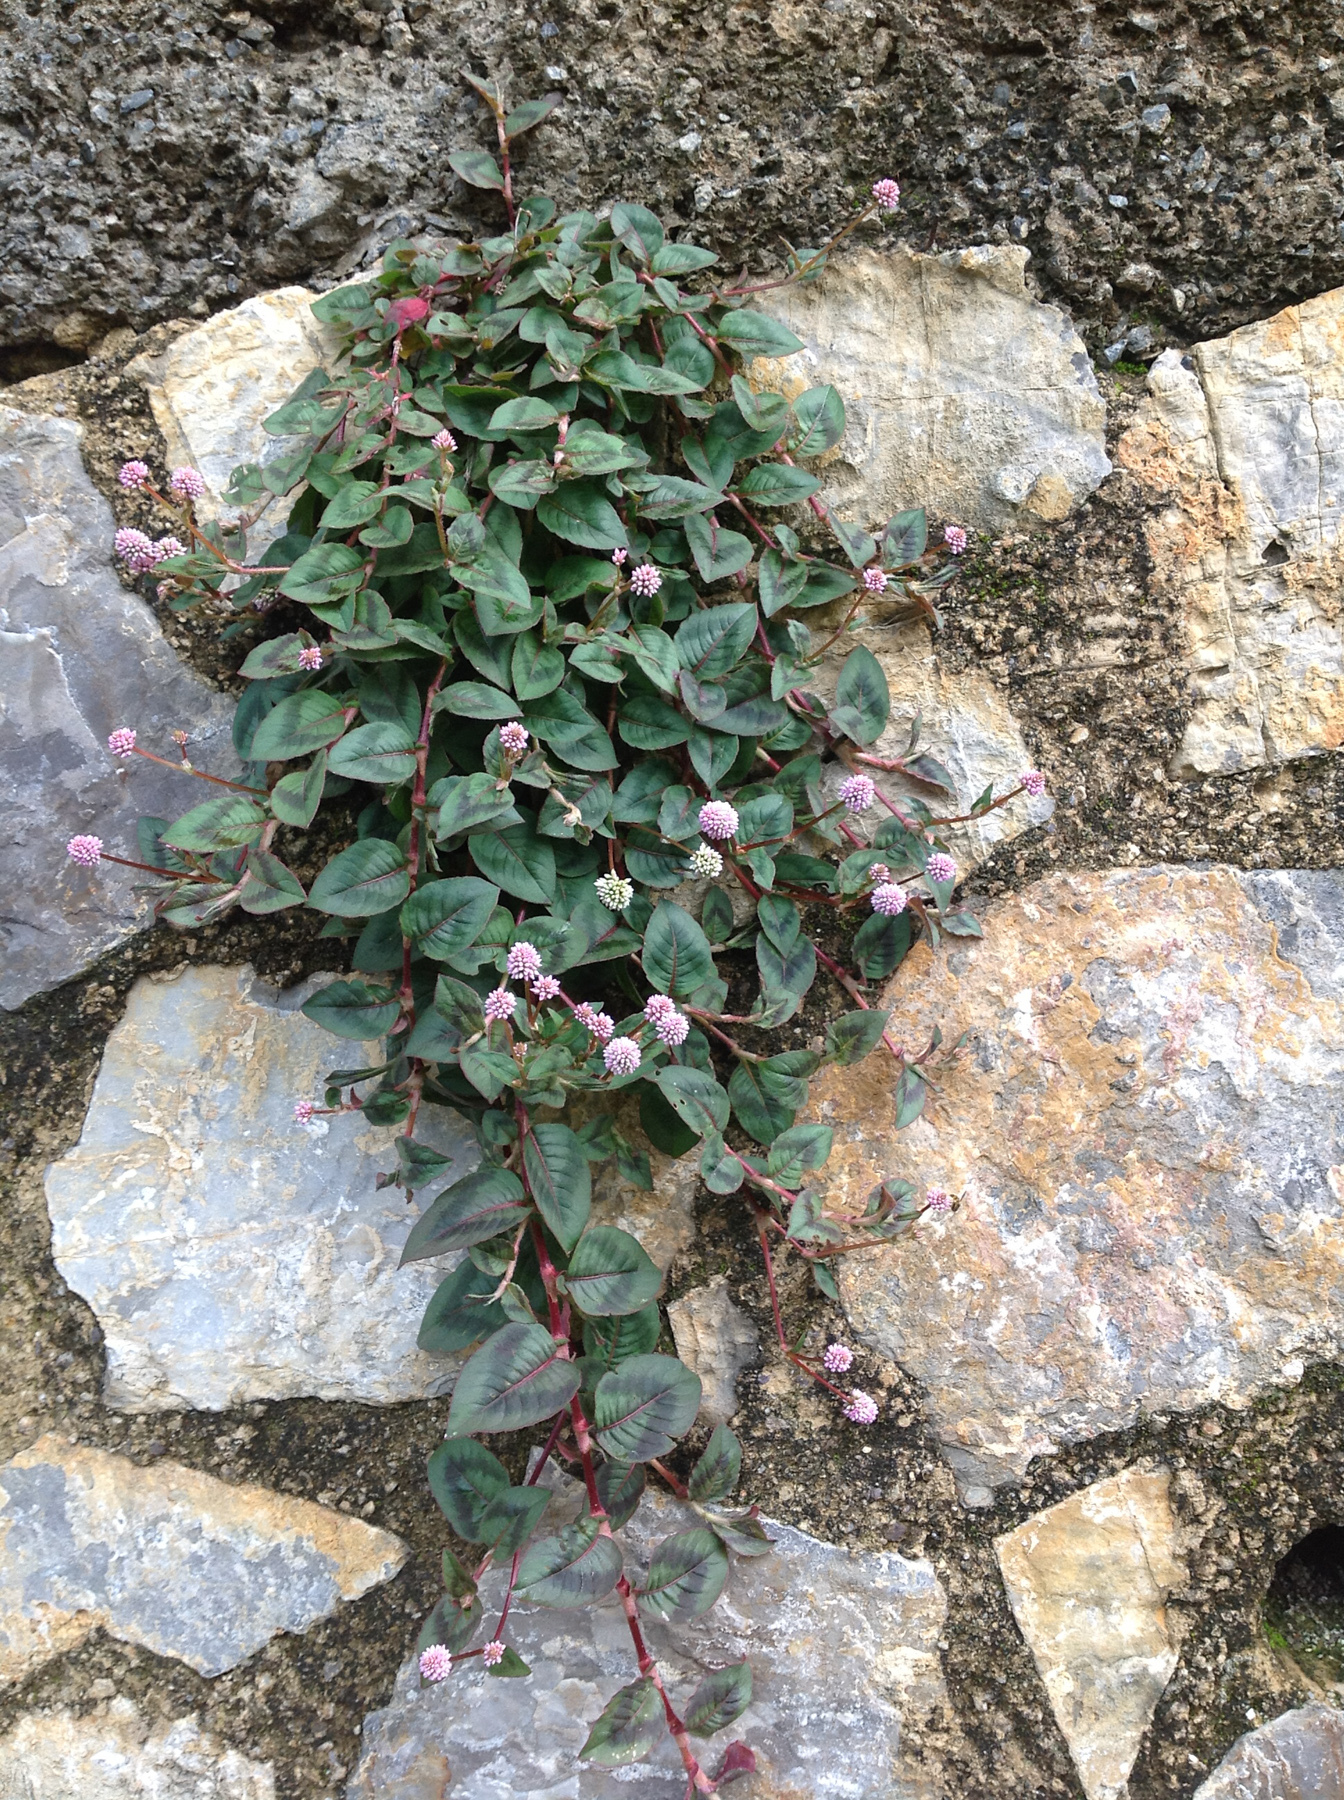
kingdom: Plantae
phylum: Tracheophyta
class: Magnoliopsida
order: Caryophyllales
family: Polygonaceae
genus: Persicaria
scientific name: Persicaria capitata
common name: Pinkhead smartweed
